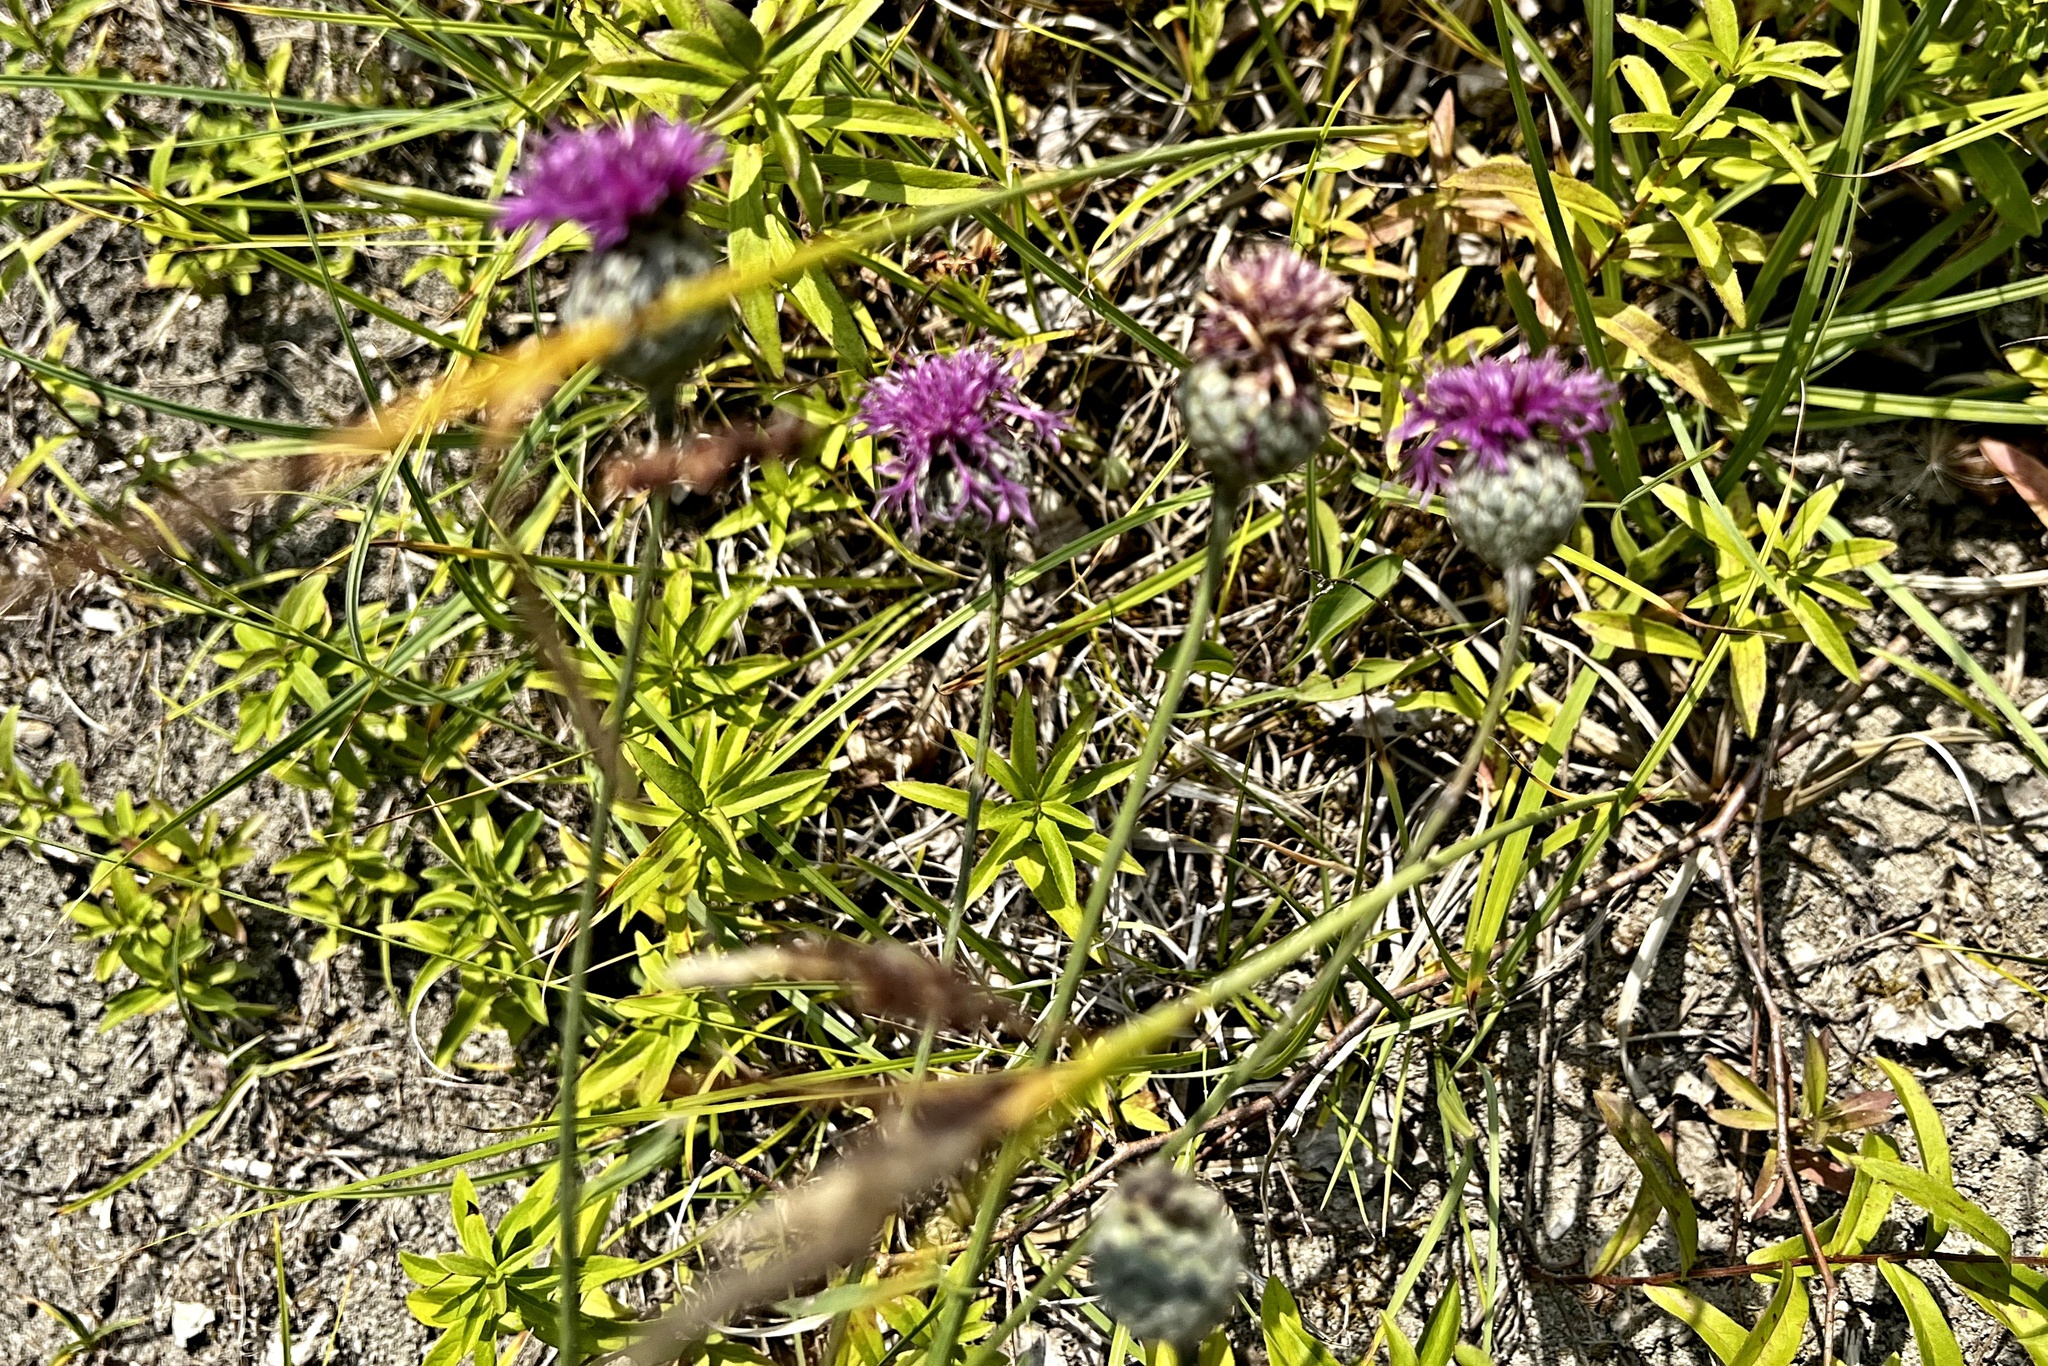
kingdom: Plantae
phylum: Tracheophyta
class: Magnoliopsida
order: Asterales
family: Asteraceae
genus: Centaurea
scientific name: Centaurea scabiosa
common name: Greater knapweed
